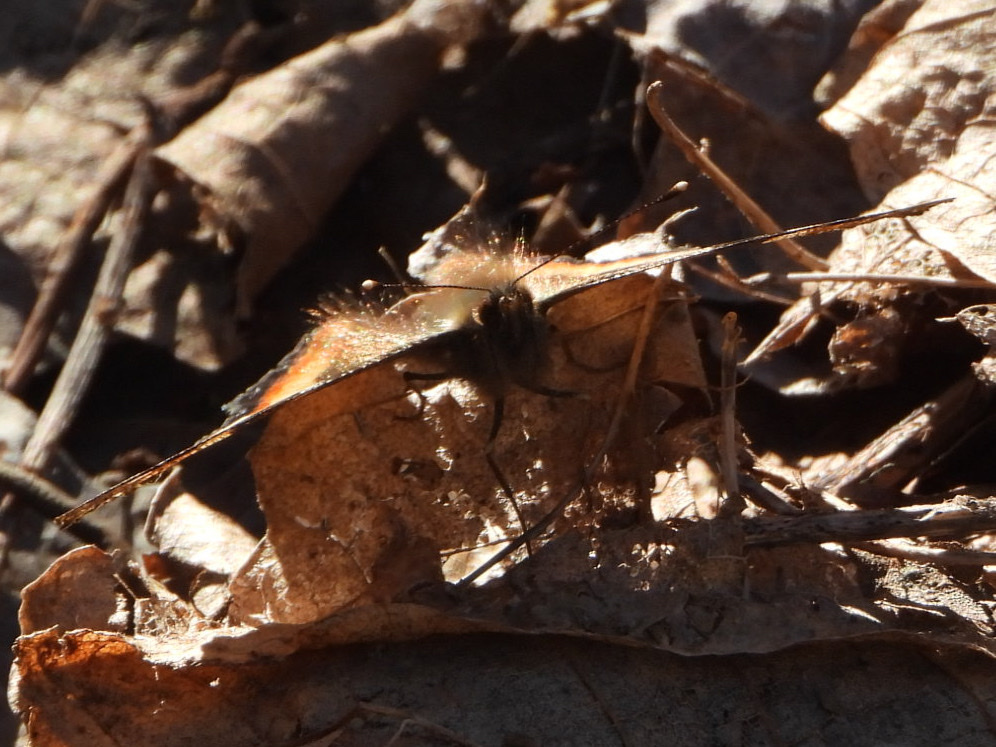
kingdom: Animalia
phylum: Arthropoda
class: Insecta
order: Lepidoptera
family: Nymphalidae
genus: Aglais
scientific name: Aglais milberti
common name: Milbert's tortoiseshell
